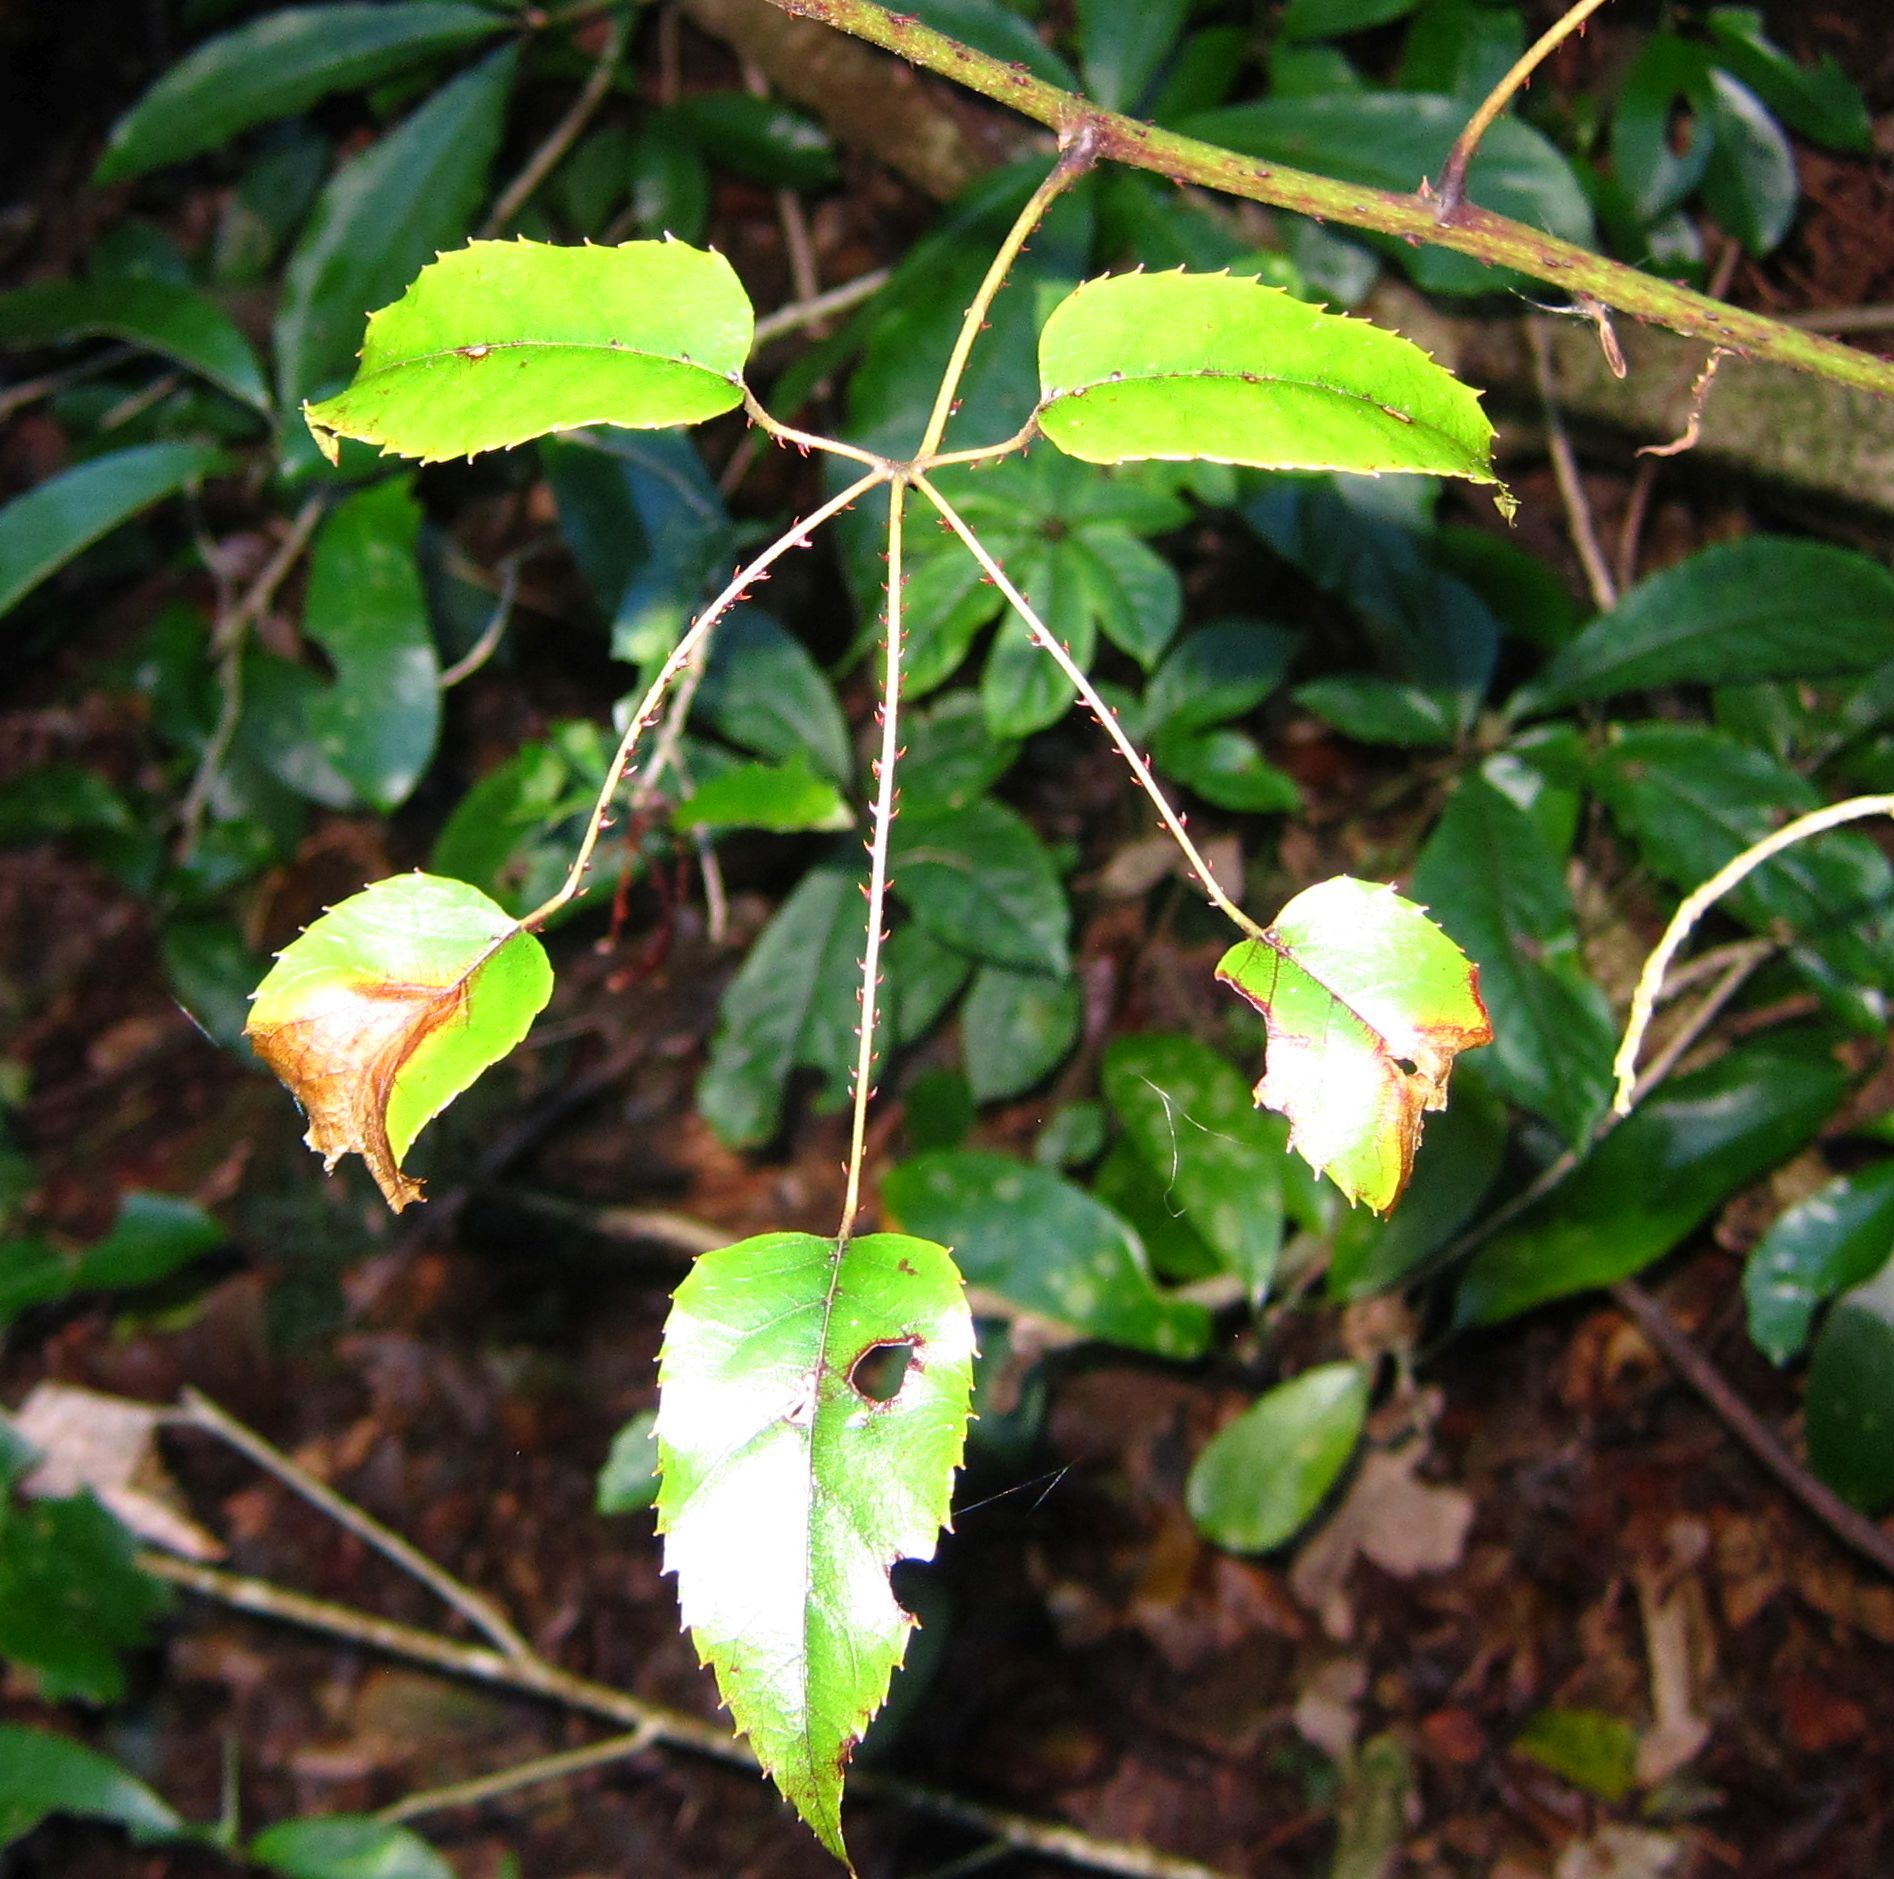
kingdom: Plantae
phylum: Tracheophyta
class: Magnoliopsida
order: Rosales
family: Rosaceae
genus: Rubus
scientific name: Rubus cissoides
